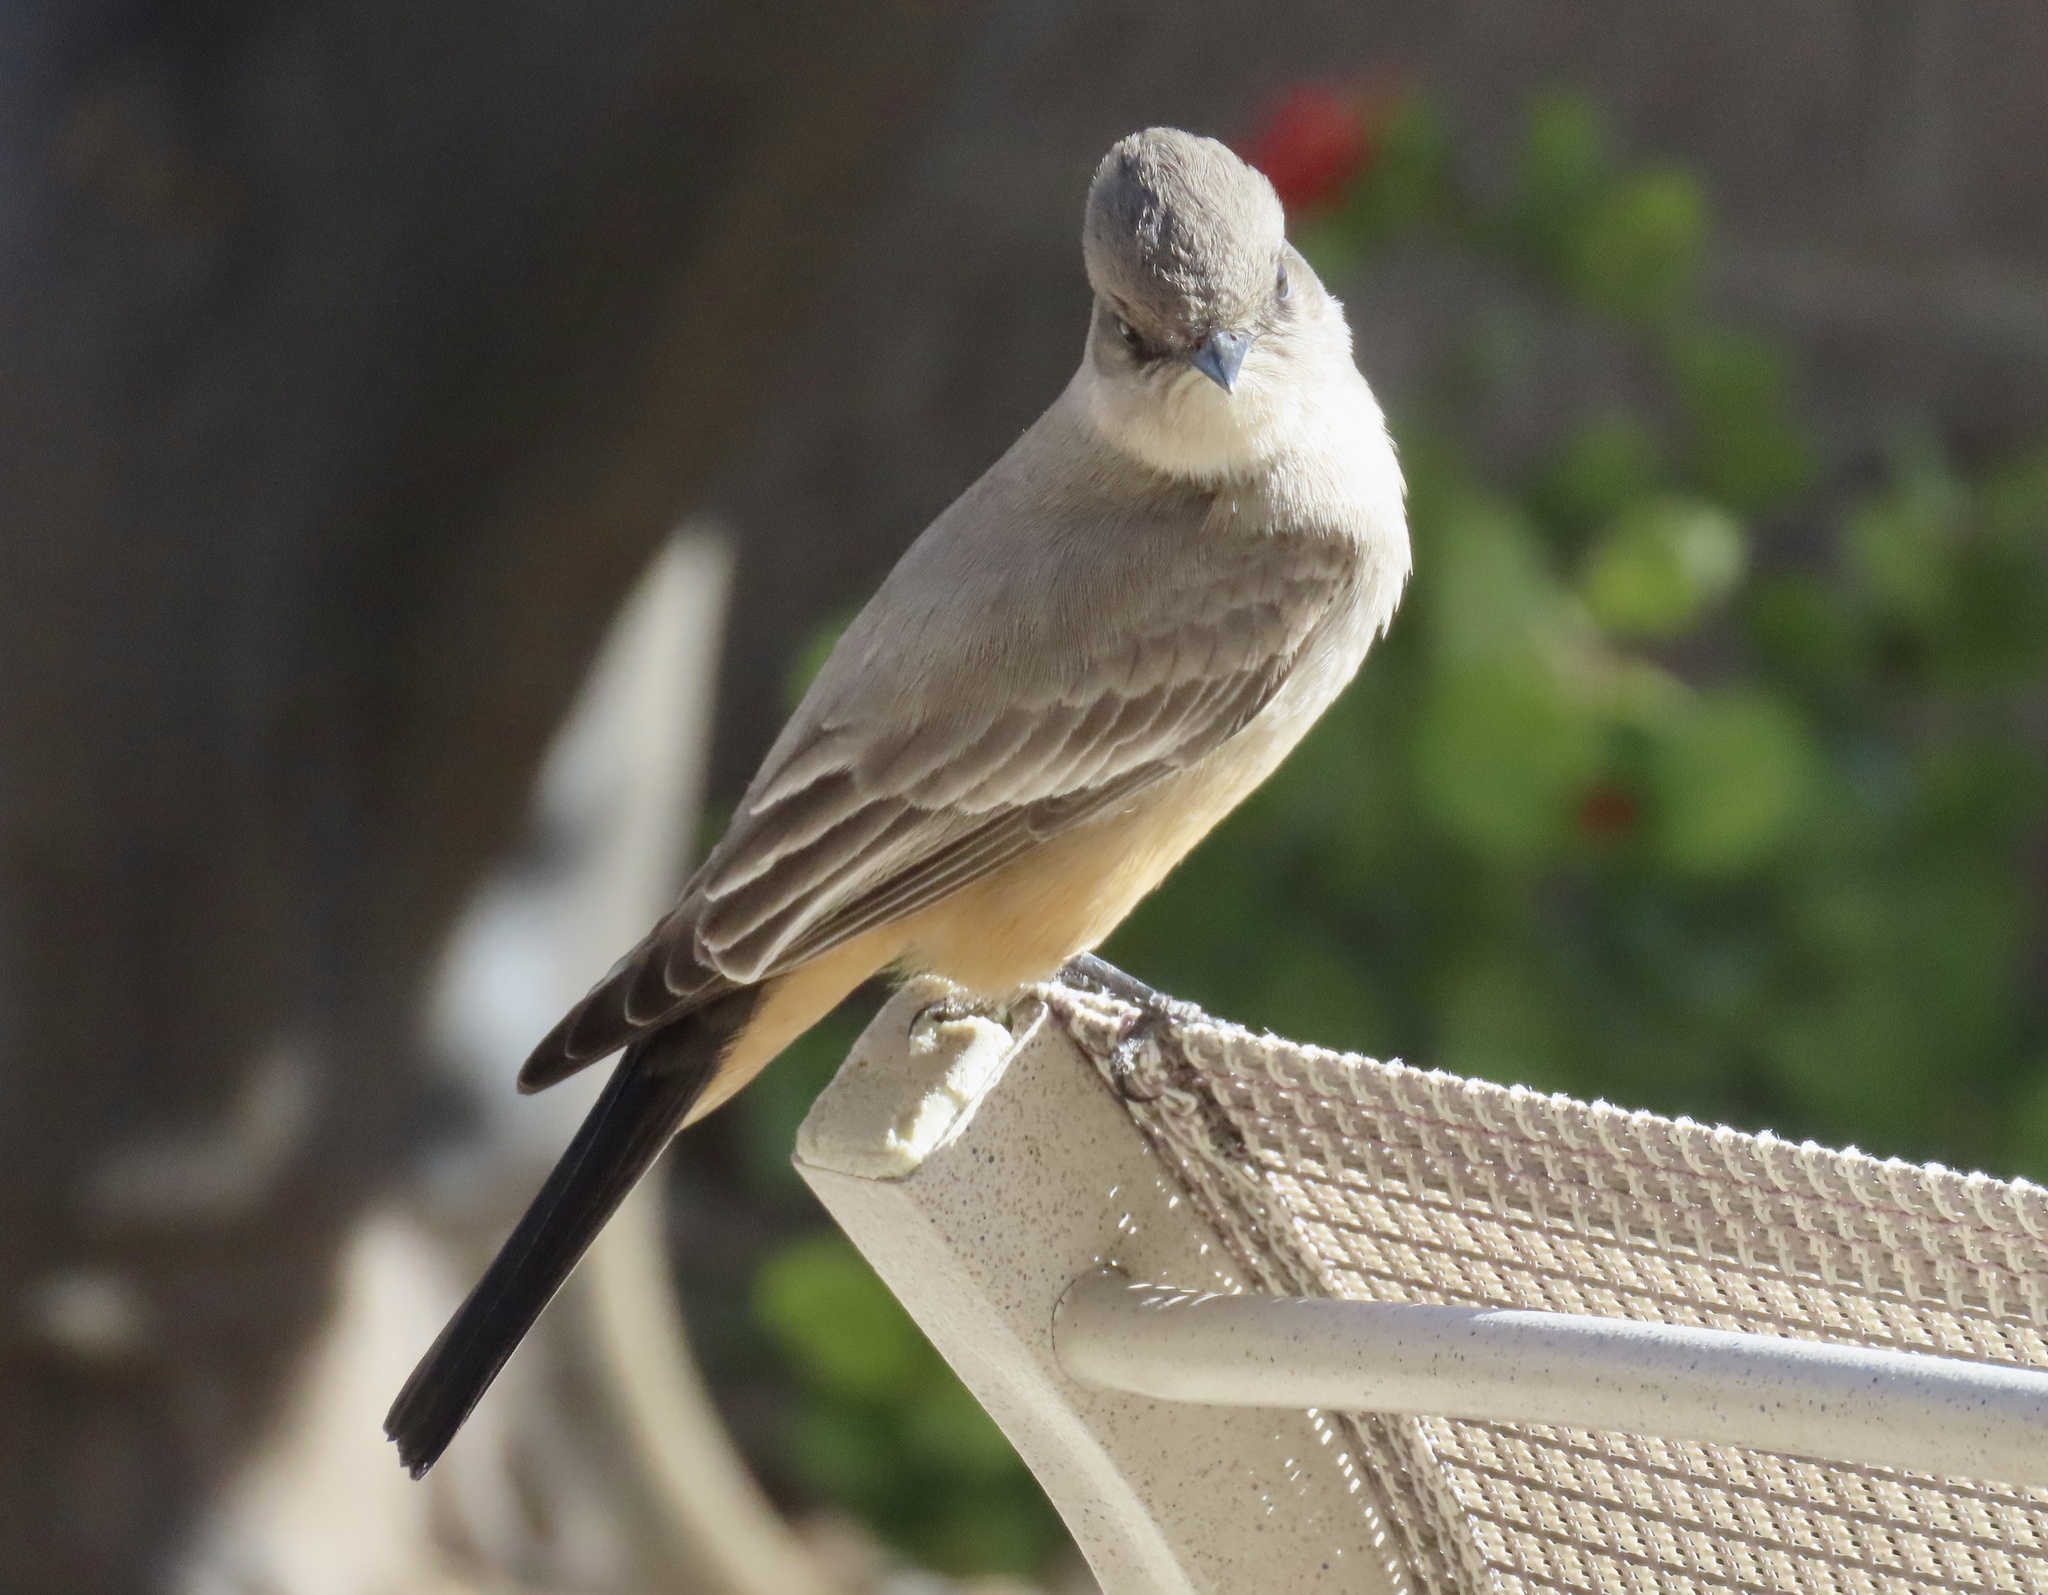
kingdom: Animalia
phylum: Chordata
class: Aves
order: Passeriformes
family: Tyrannidae
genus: Sayornis
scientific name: Sayornis saya
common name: Say's phoebe
